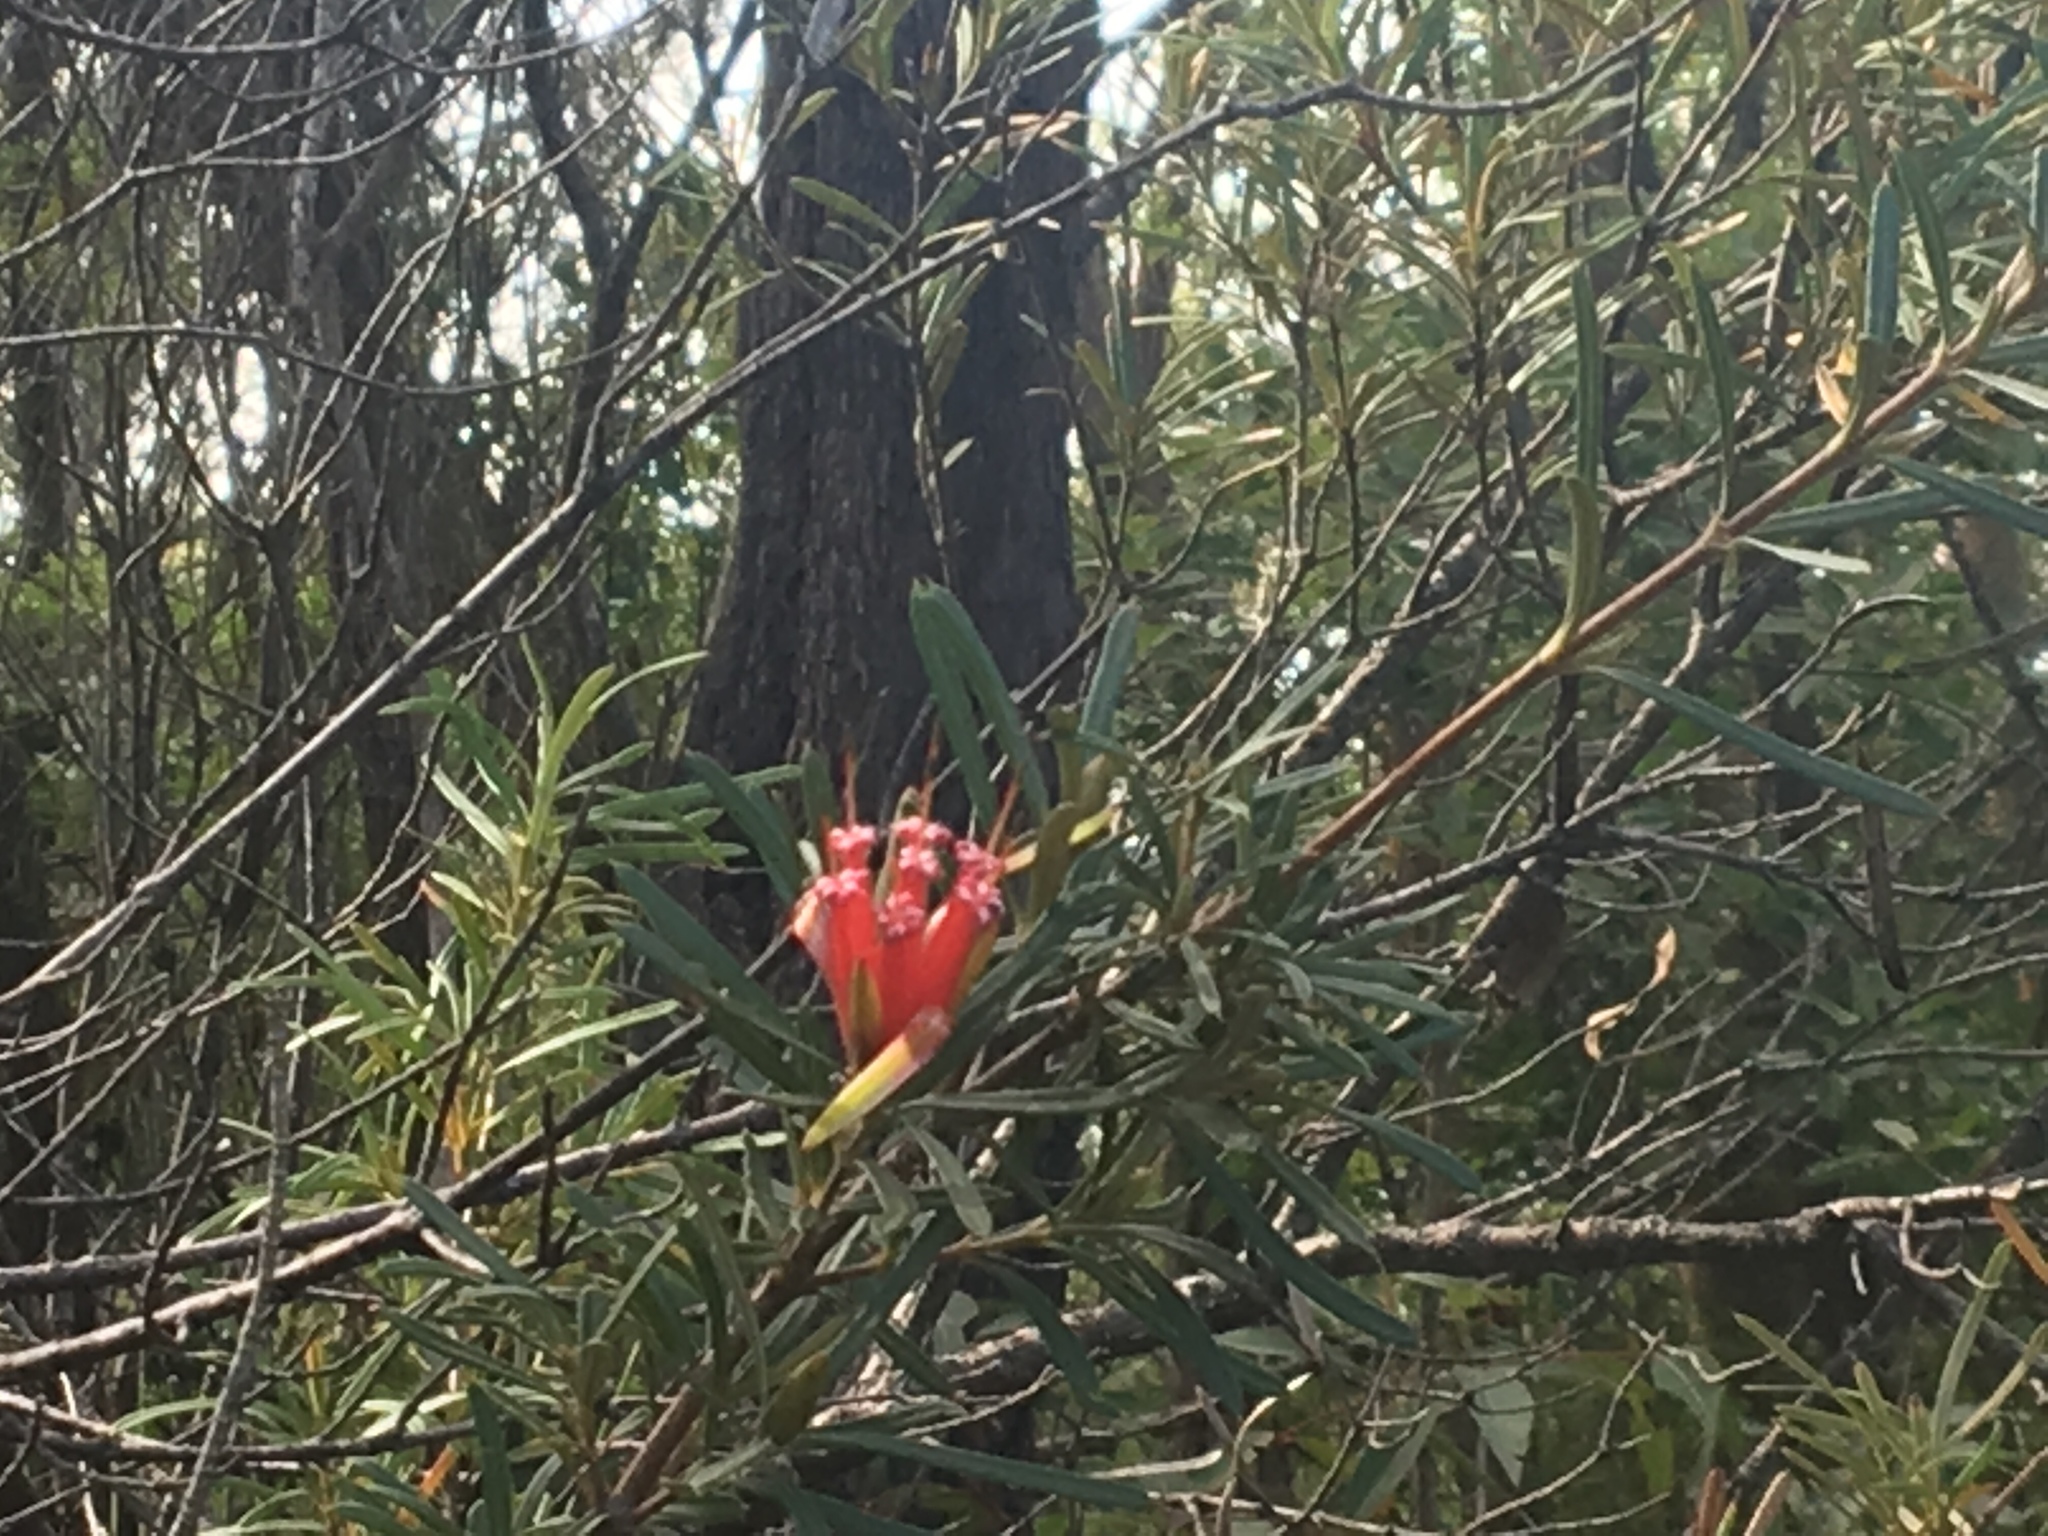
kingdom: Plantae
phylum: Tracheophyta
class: Magnoliopsida
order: Proteales
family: Proteaceae
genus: Lambertia
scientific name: Lambertia formosa
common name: Mountain-devil
